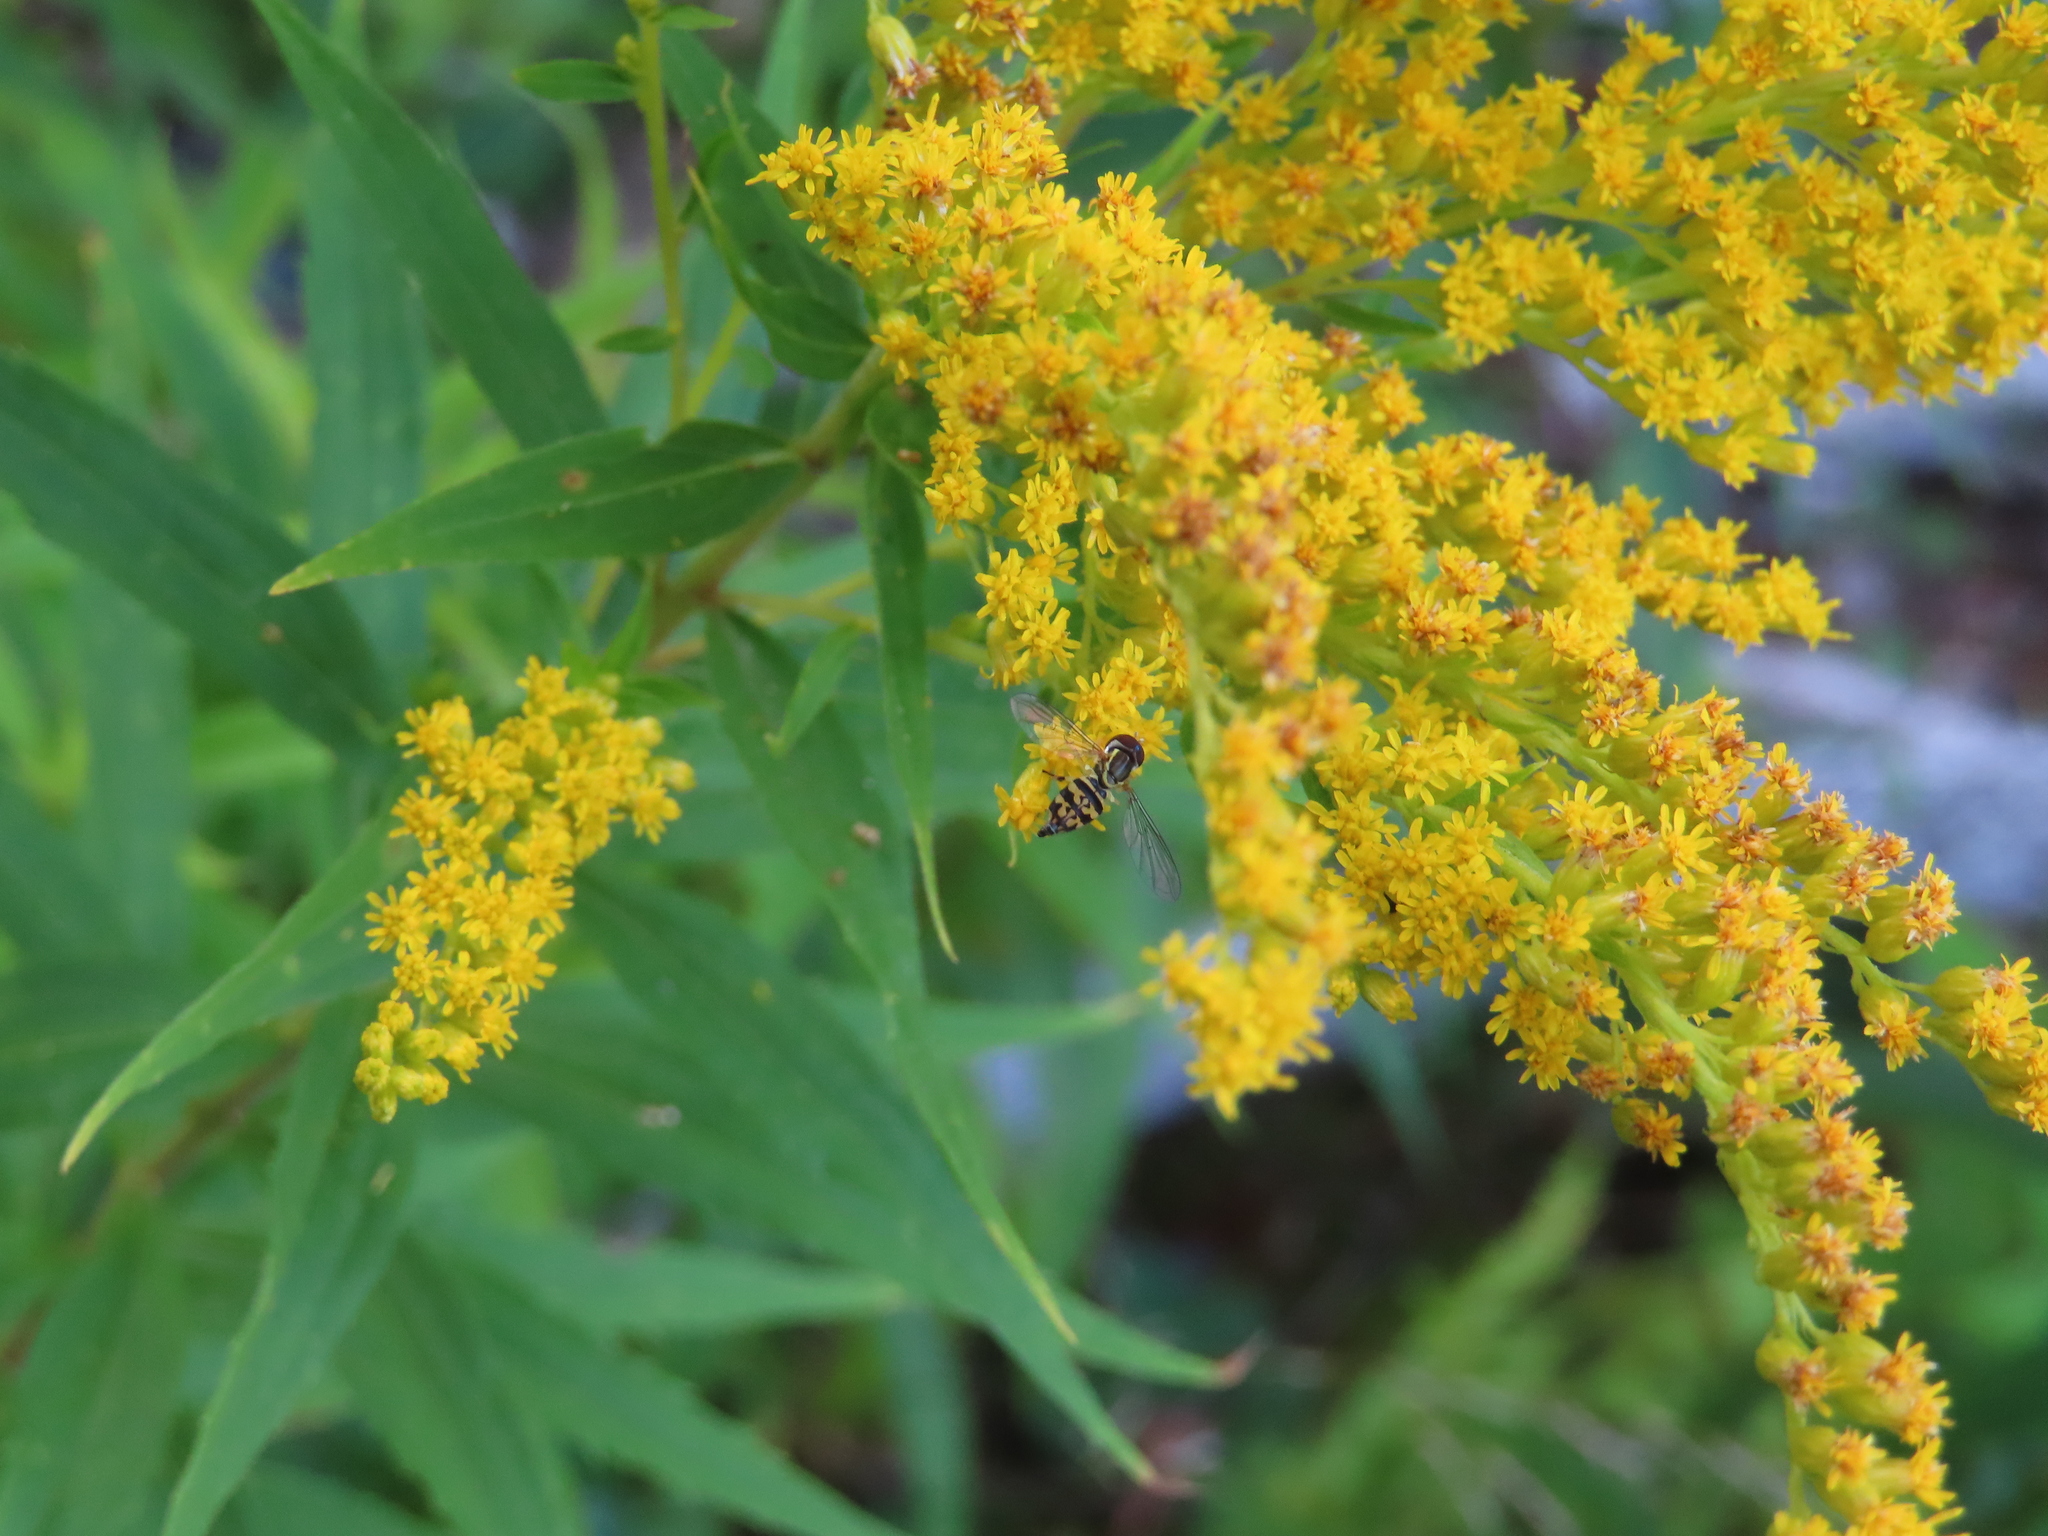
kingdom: Animalia
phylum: Arthropoda
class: Insecta
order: Diptera
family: Syrphidae
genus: Toxomerus
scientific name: Toxomerus geminatus
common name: Eastern calligrapher
